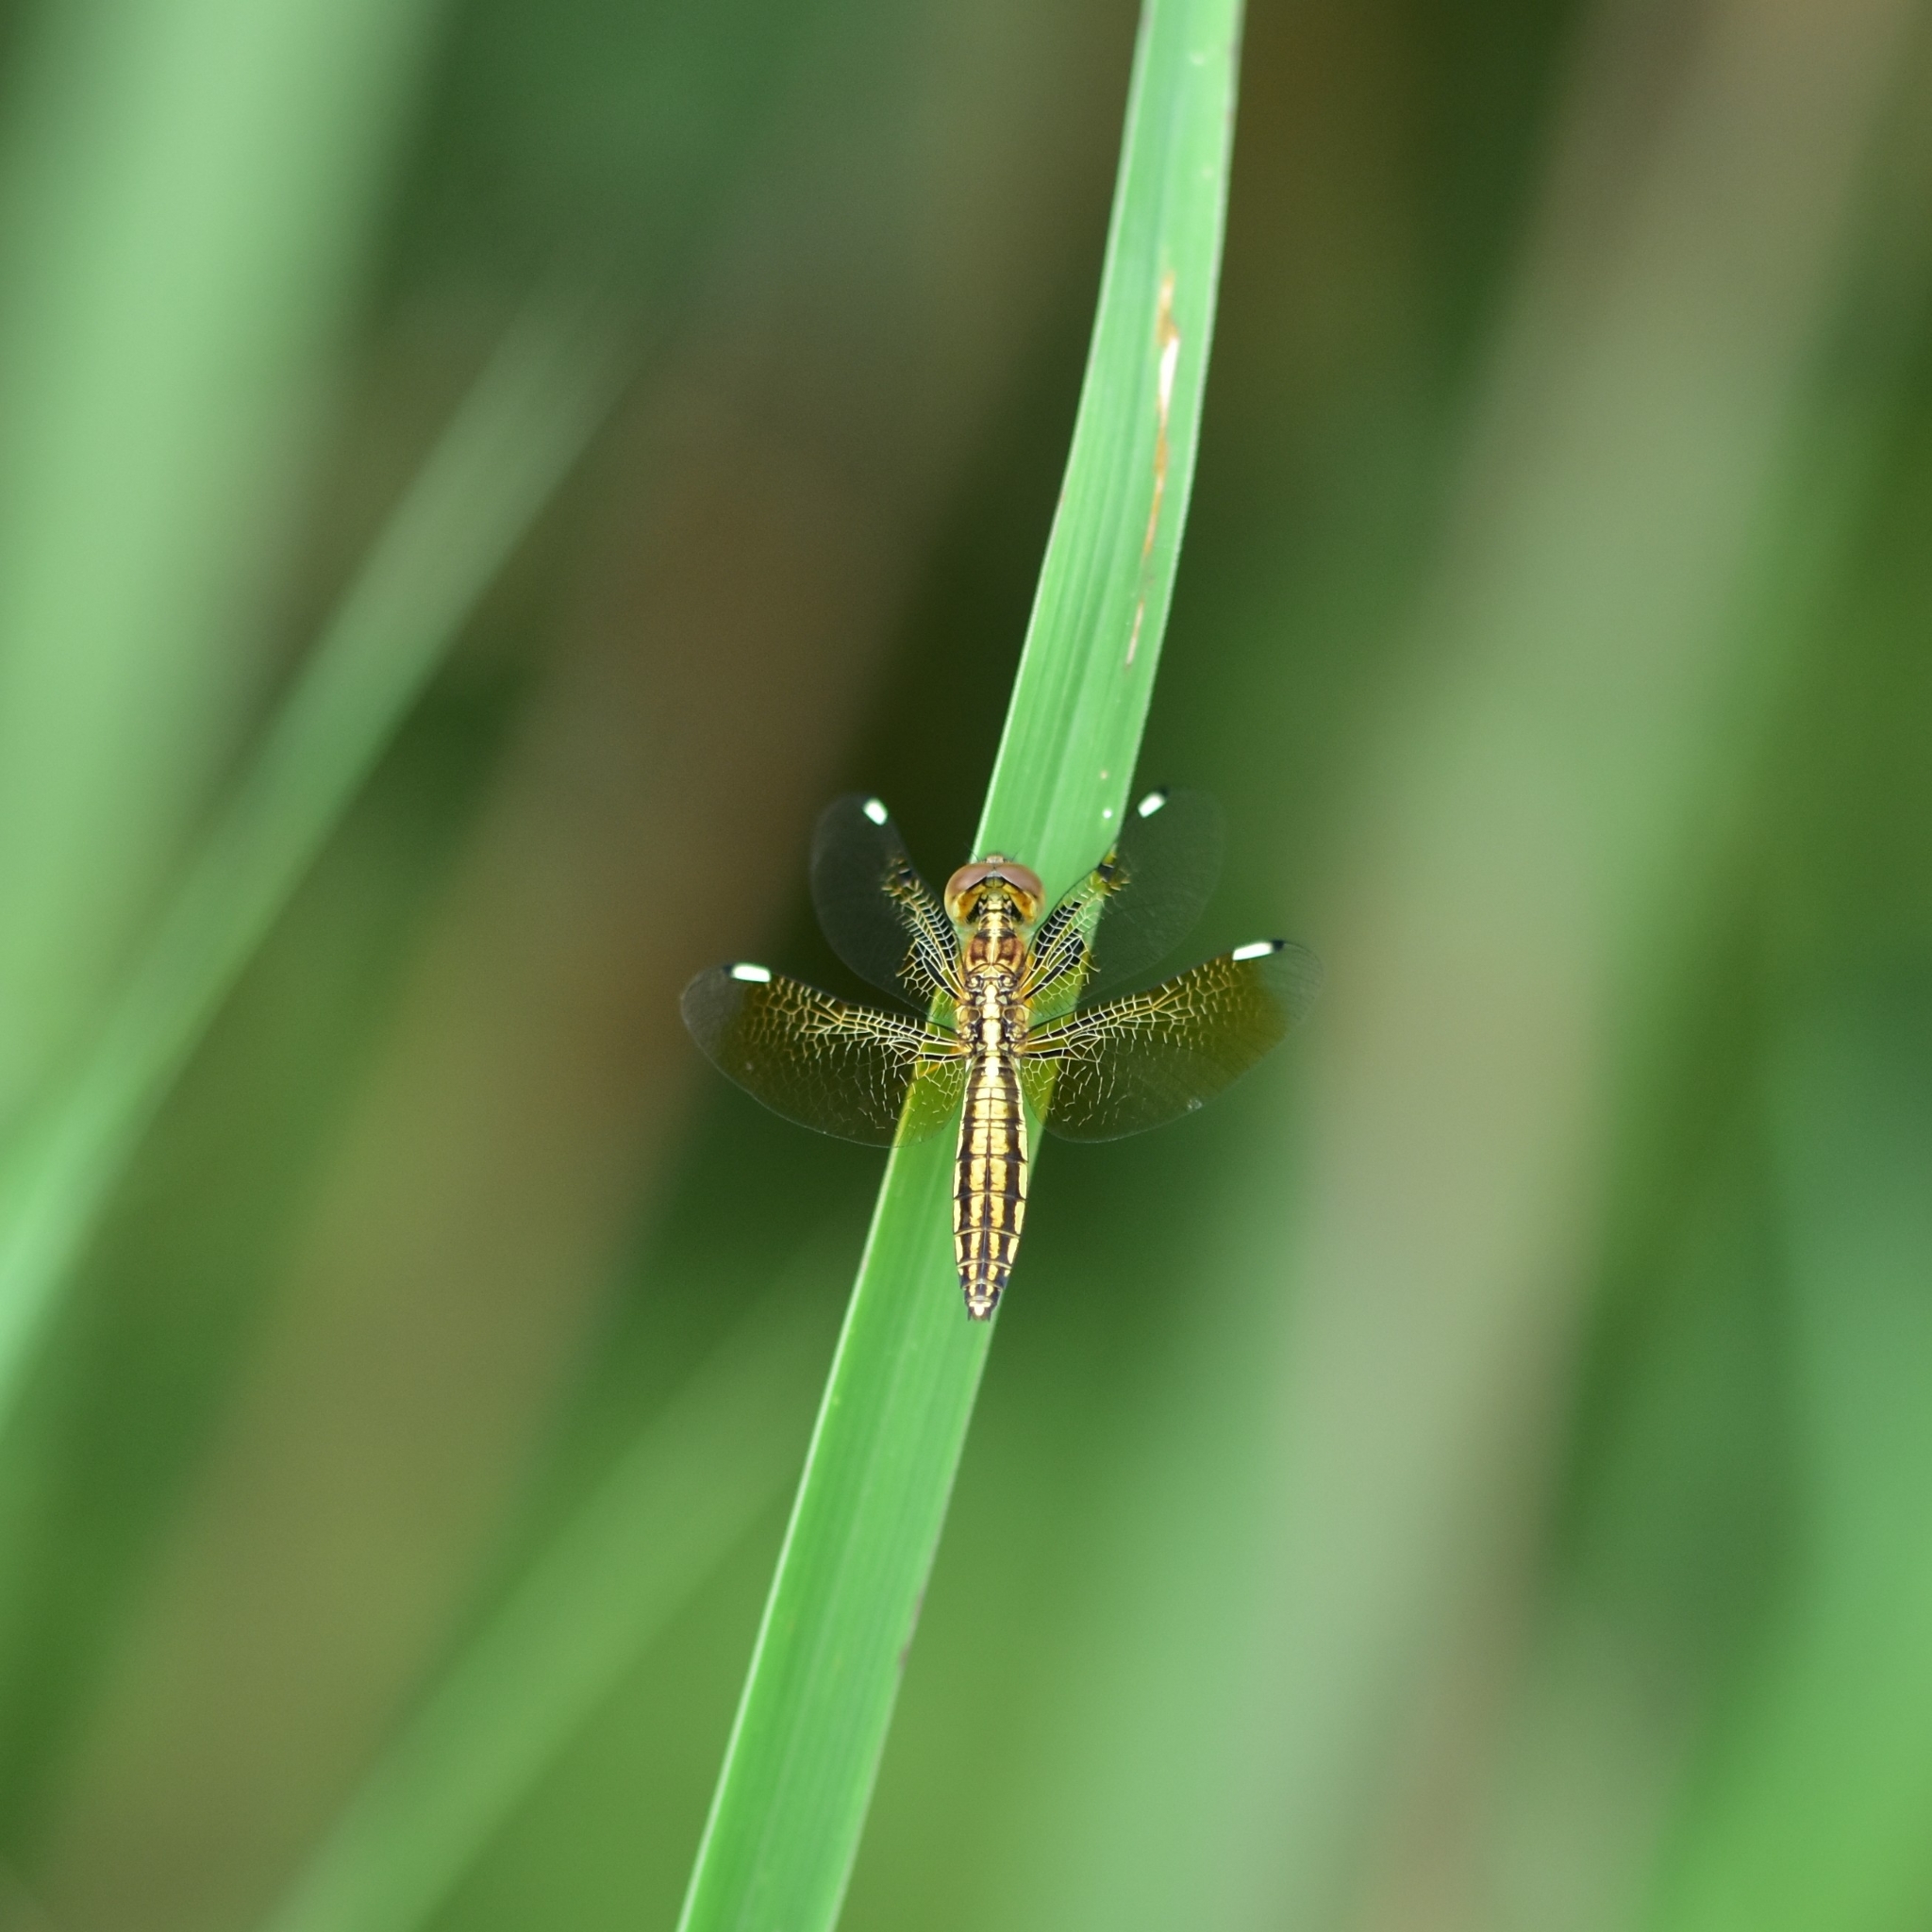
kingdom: Animalia
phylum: Arthropoda
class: Insecta
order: Odonata
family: Libellulidae
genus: Palpopleura
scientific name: Palpopleura sexmaculata
